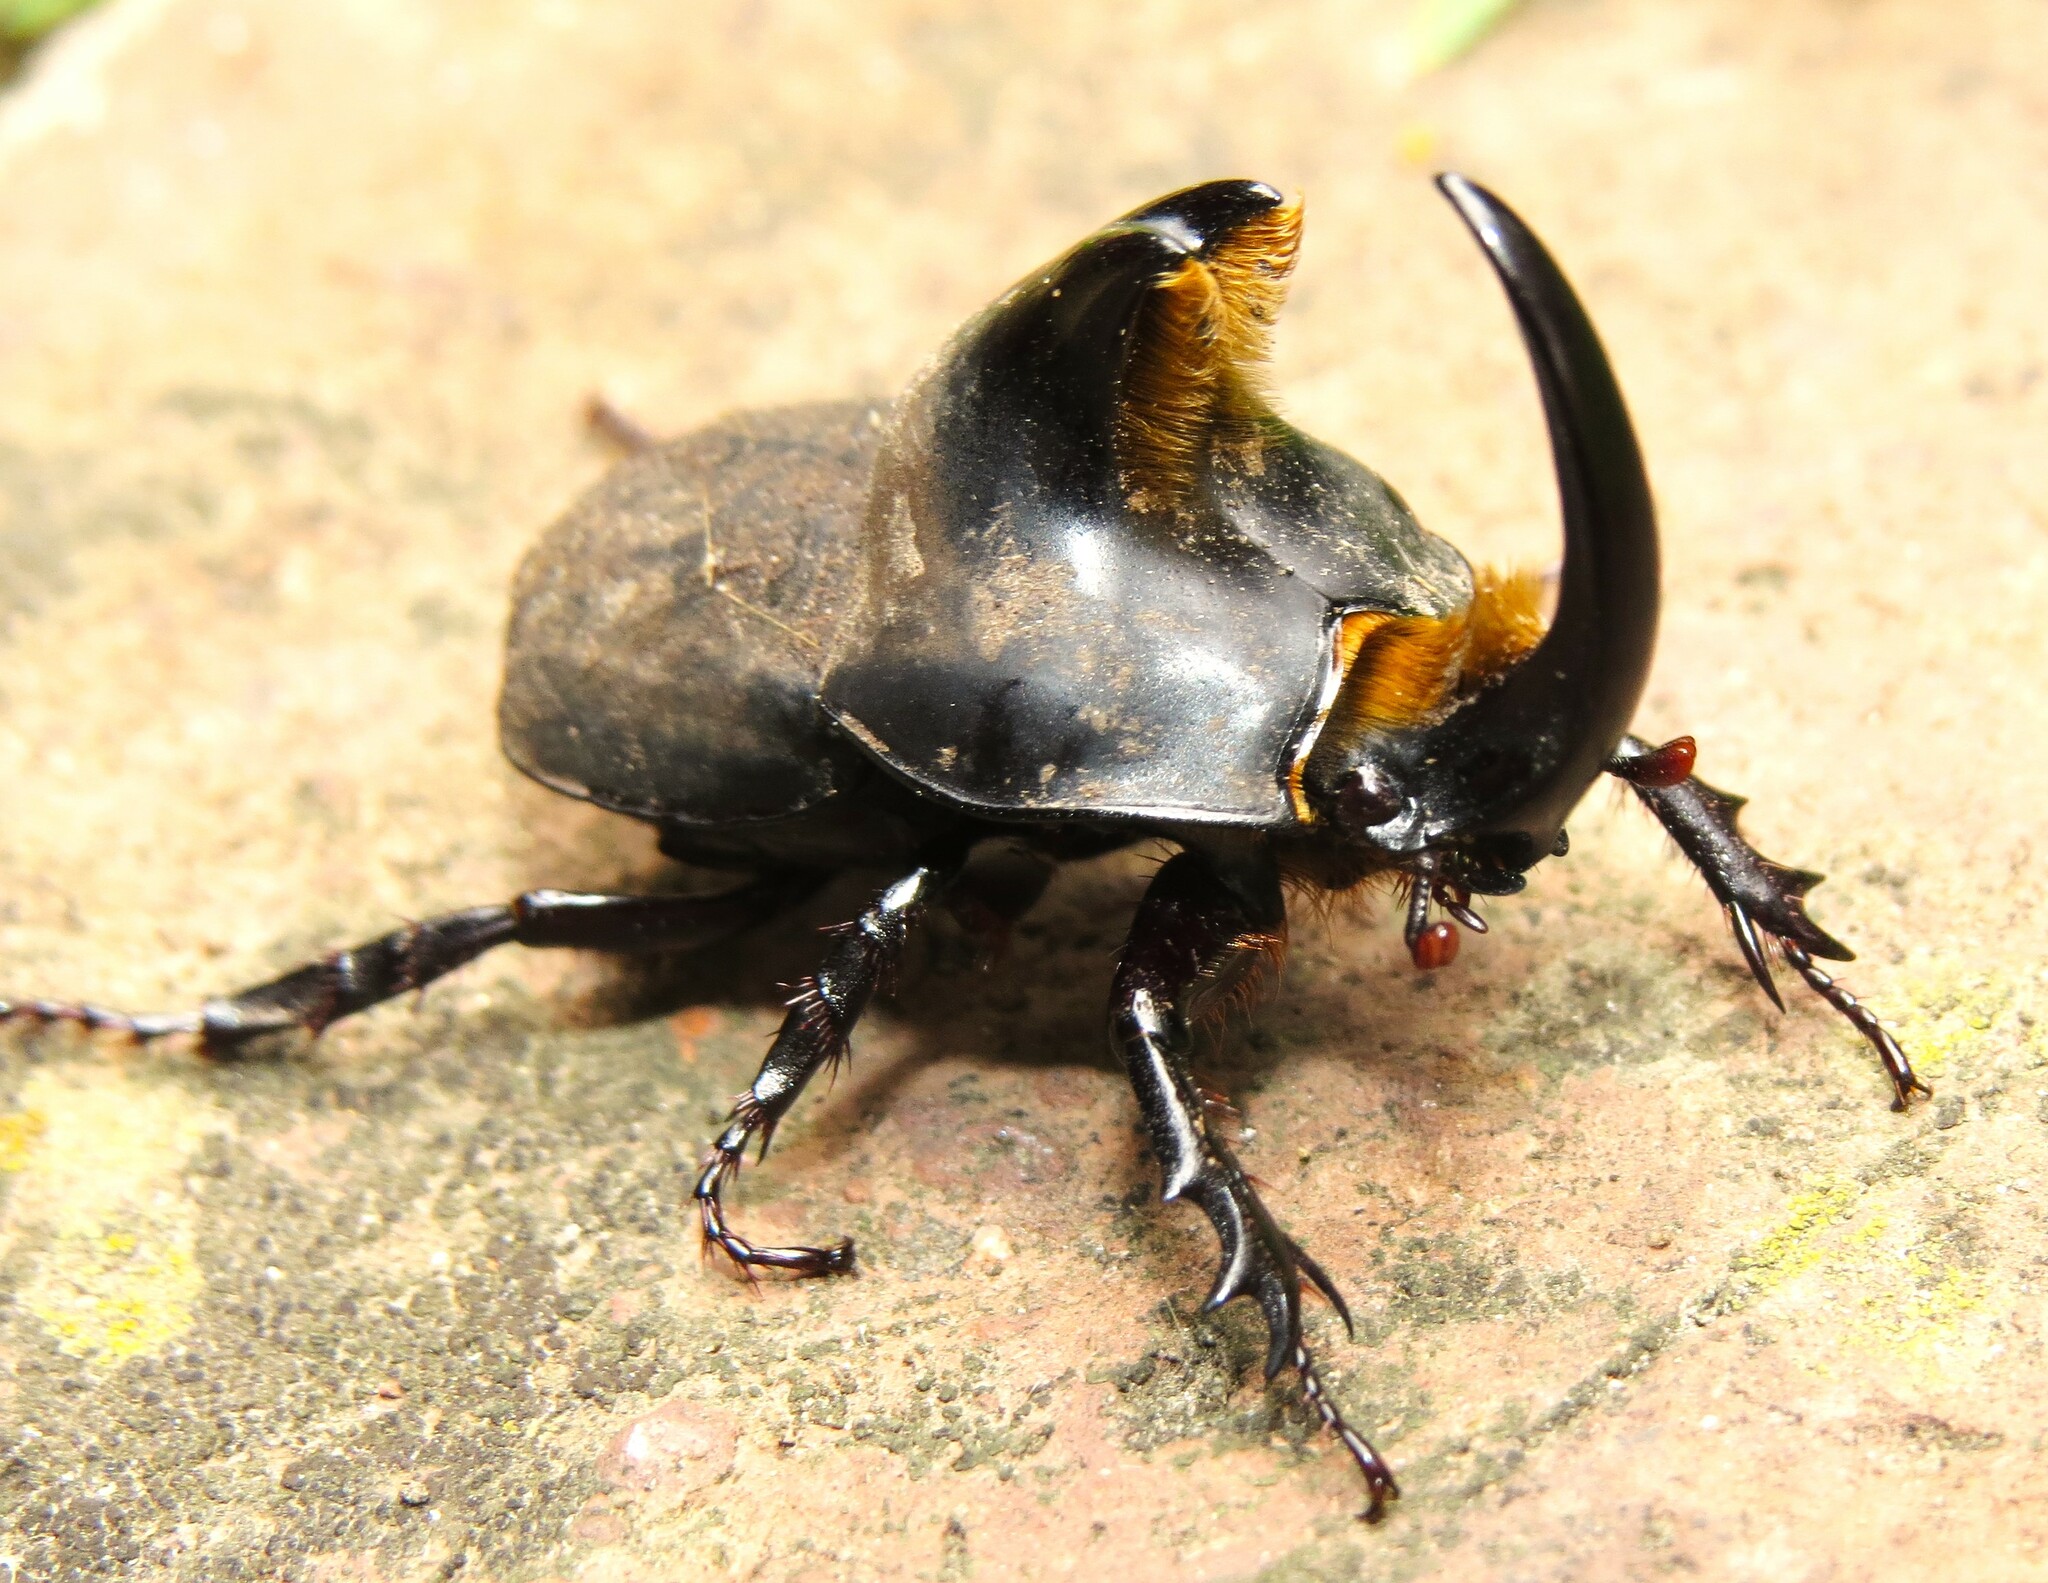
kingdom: Animalia
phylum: Arthropoda
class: Insecta
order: Coleoptera
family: Scarabaeidae
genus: Diloboderus
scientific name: Diloboderus abderus
